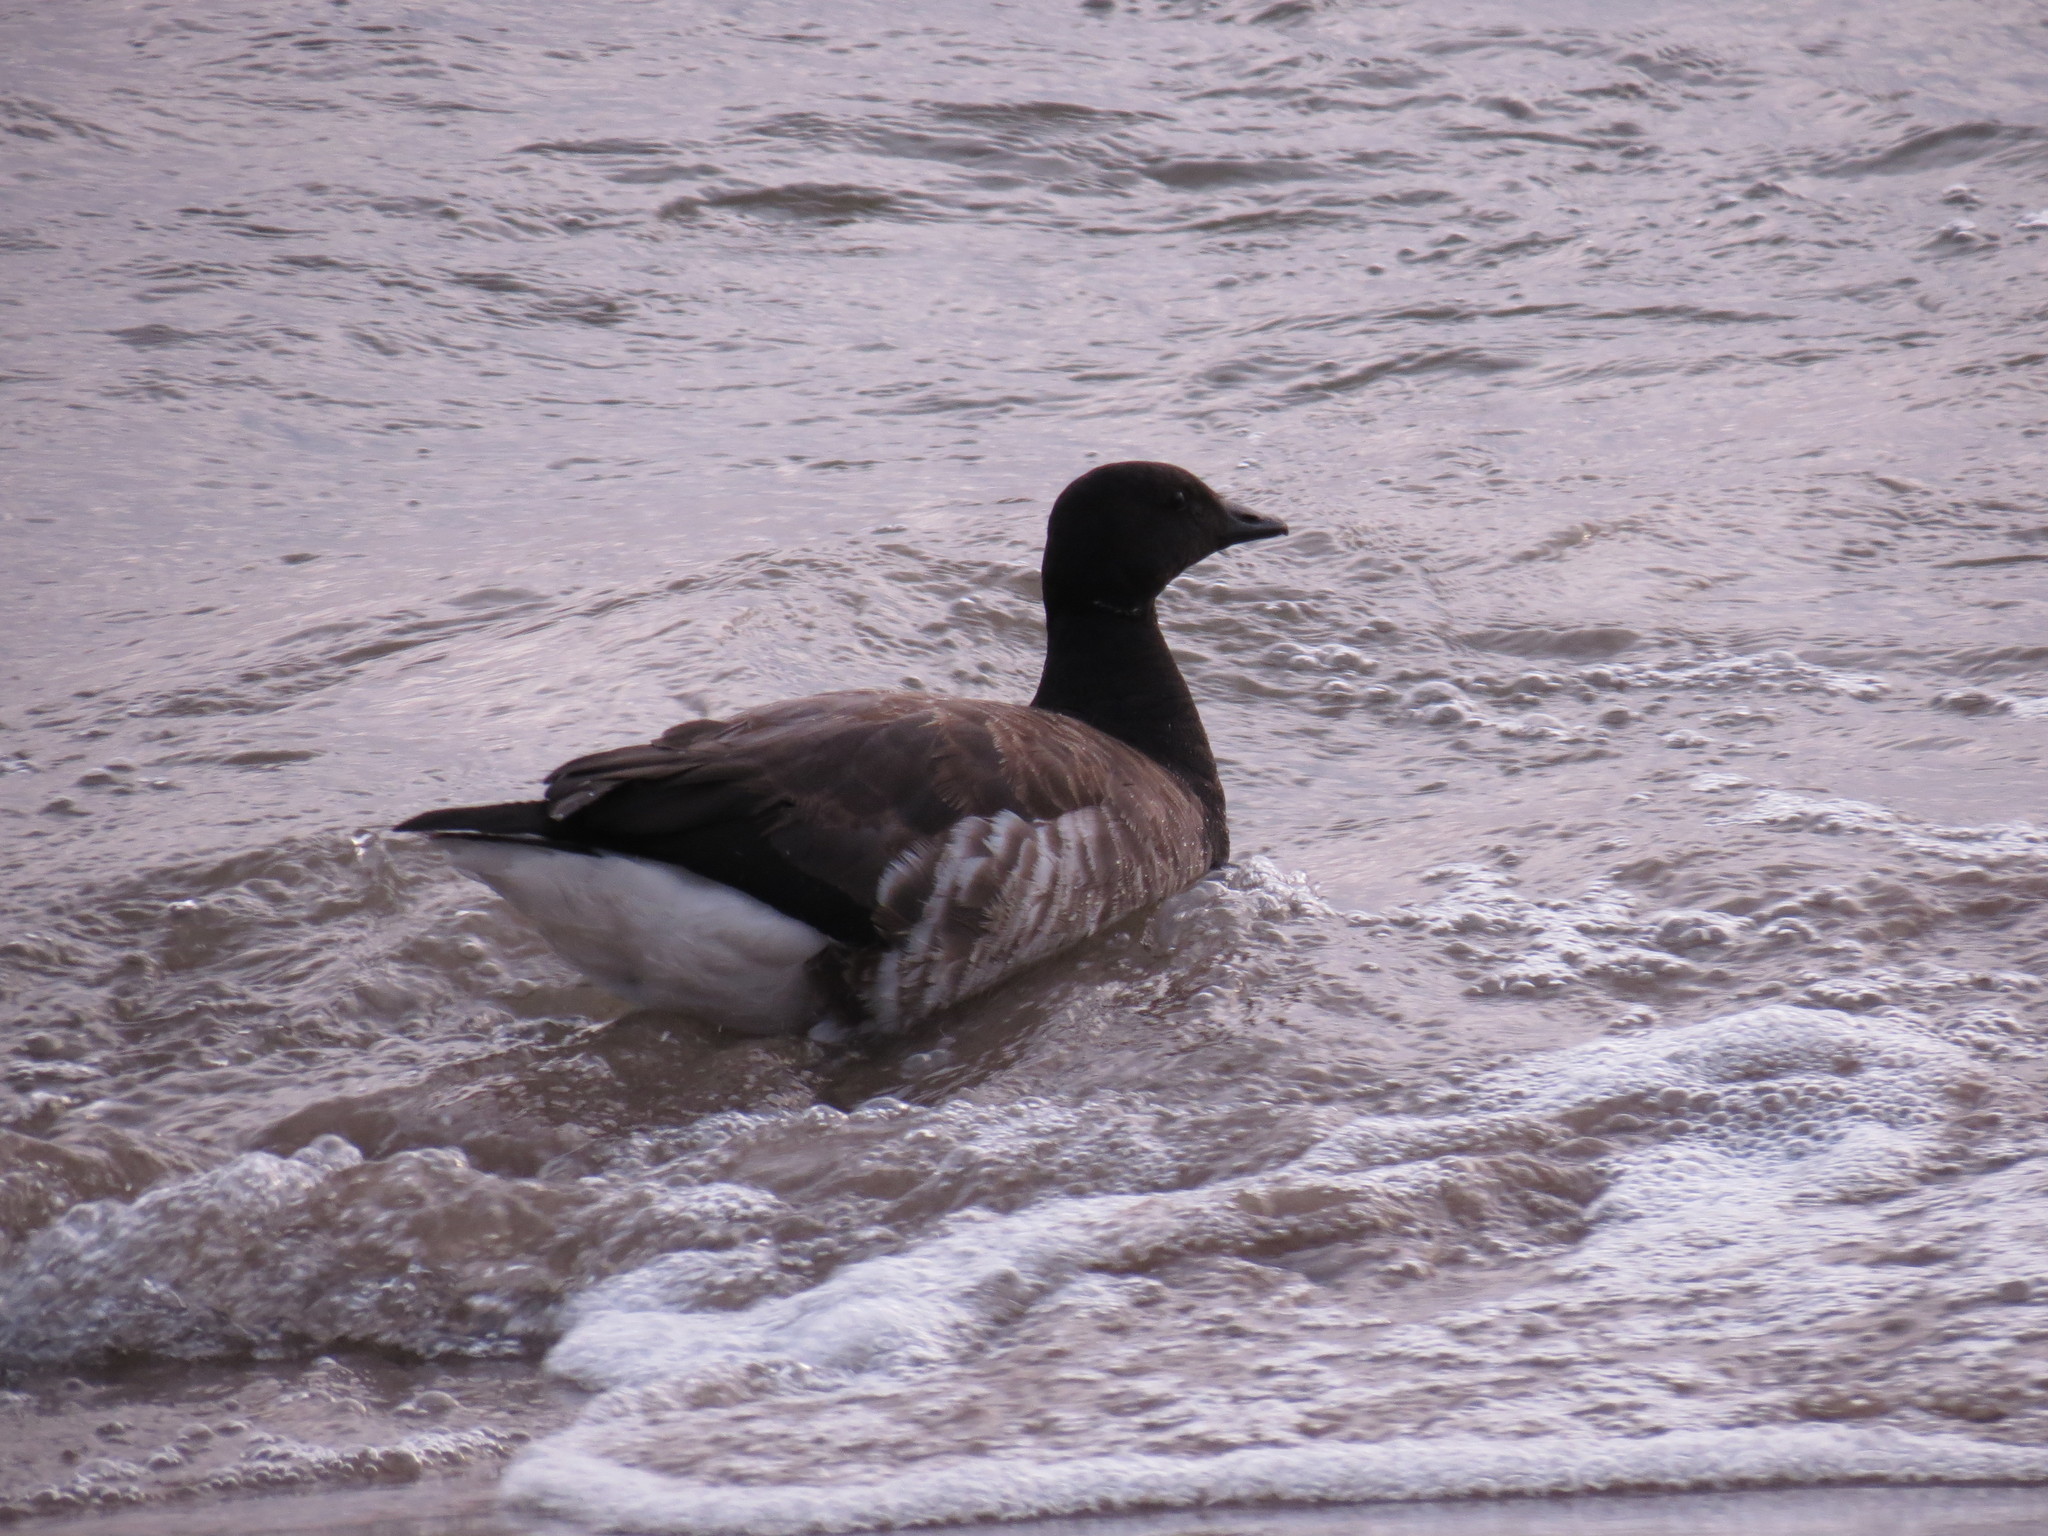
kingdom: Animalia
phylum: Chordata
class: Aves
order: Anseriformes
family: Anatidae
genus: Branta
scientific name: Branta bernicla
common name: Brant goose
